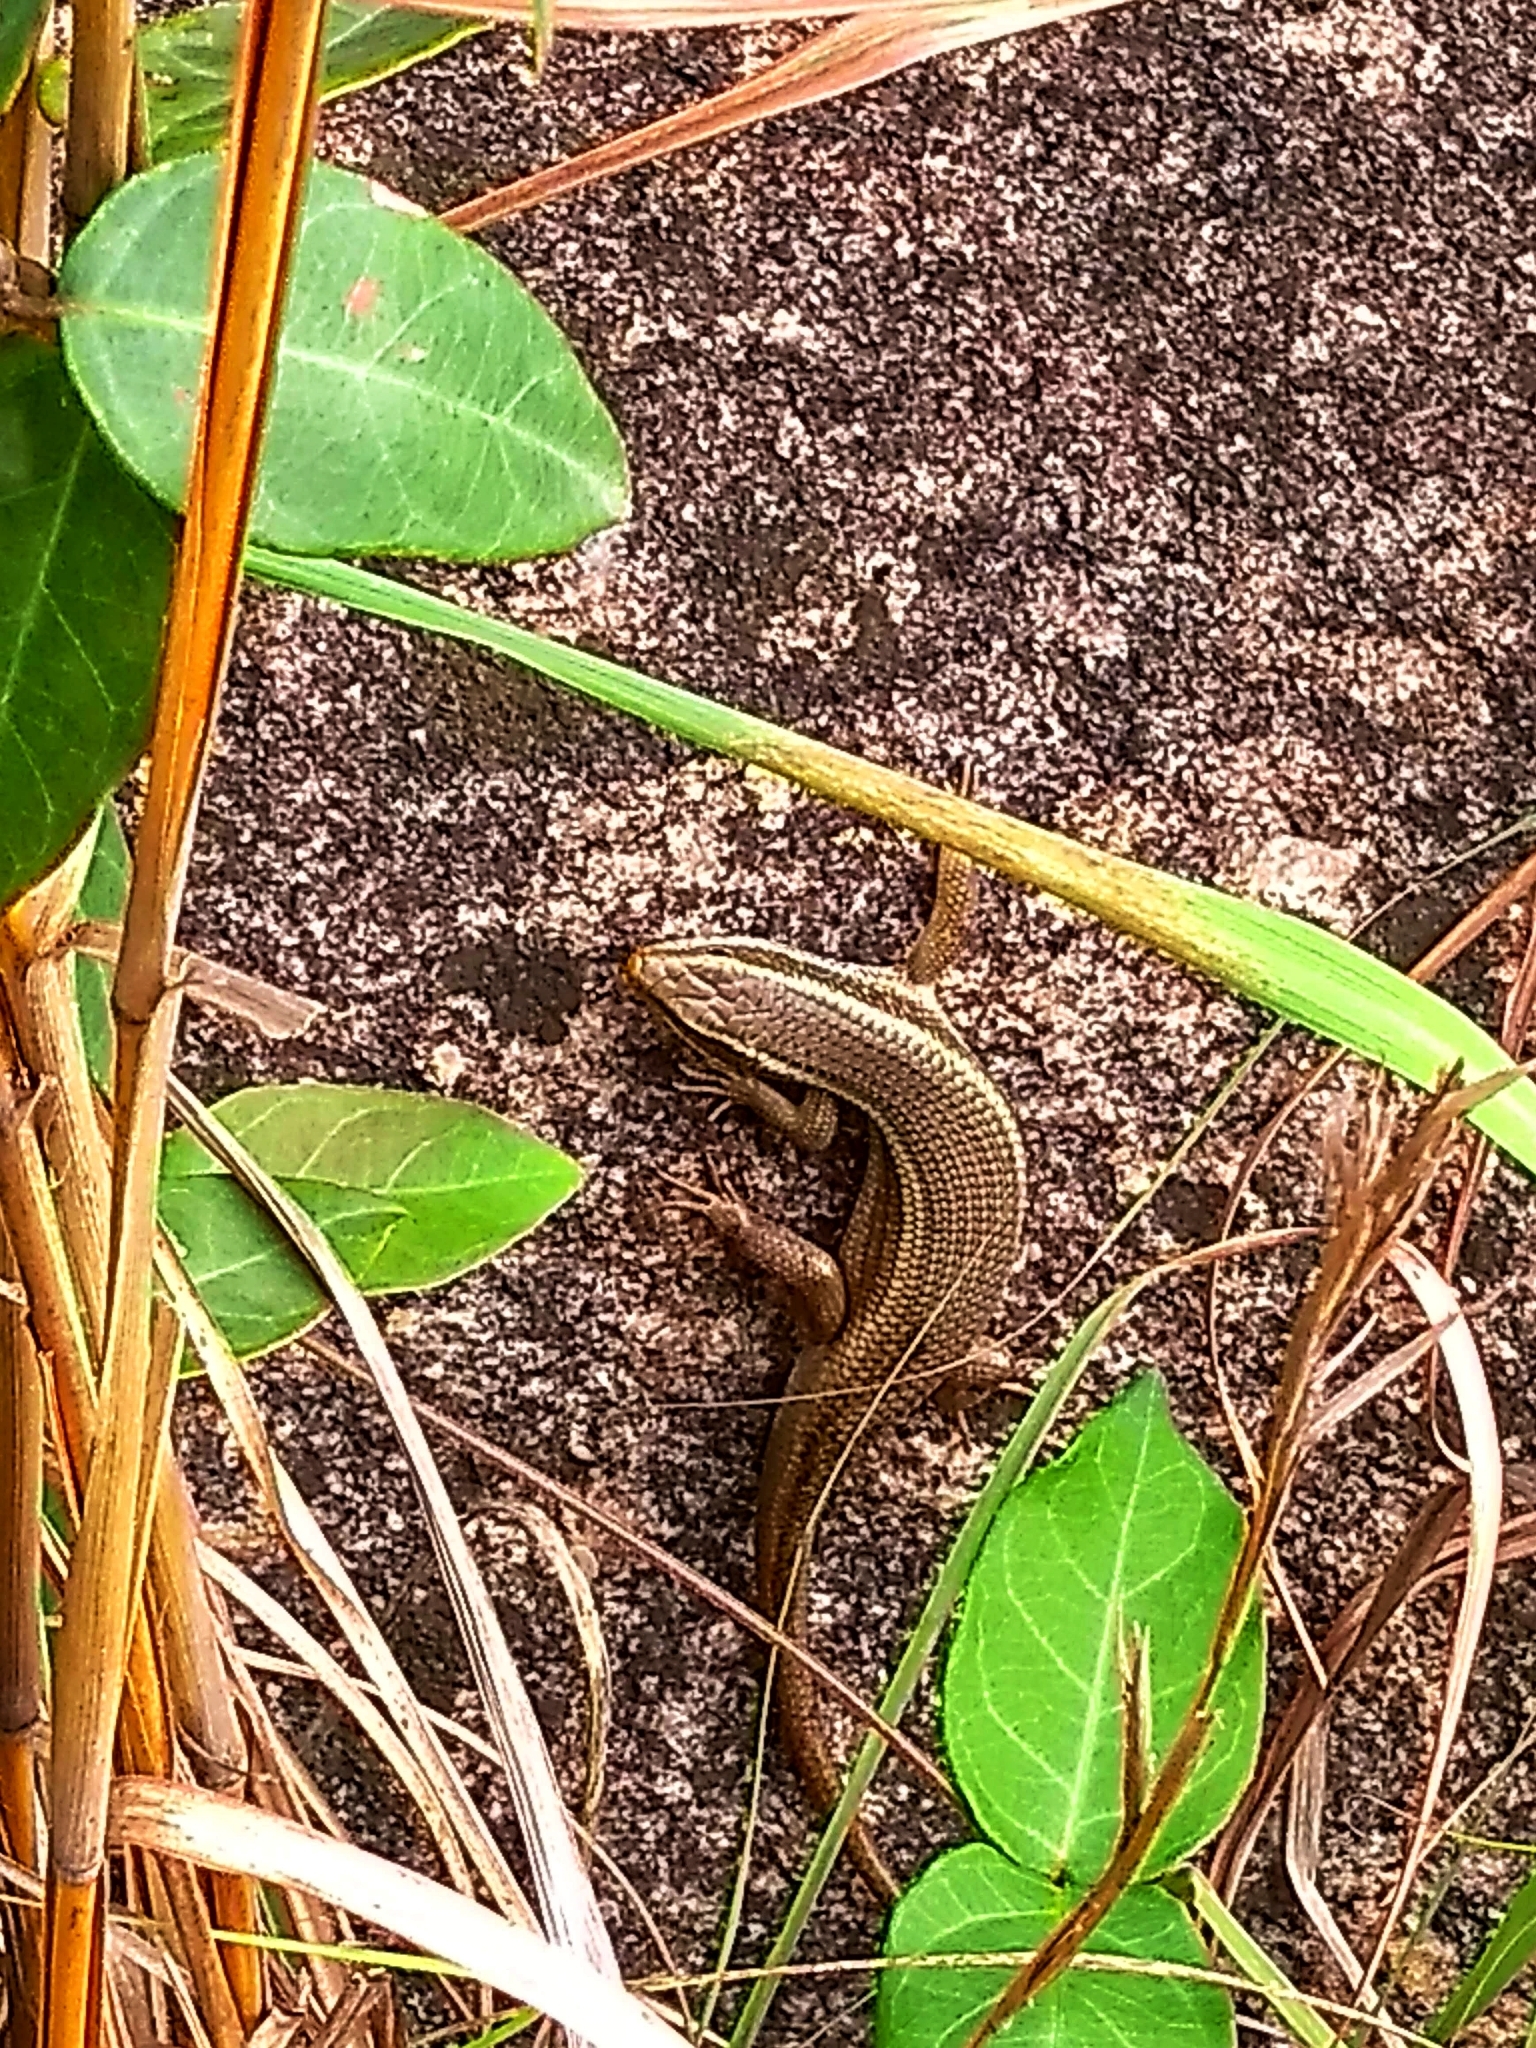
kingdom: Animalia
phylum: Chordata
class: Squamata
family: Scincidae
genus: Eutropis
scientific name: Eutropis carinata
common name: Keeled indian mabuya
